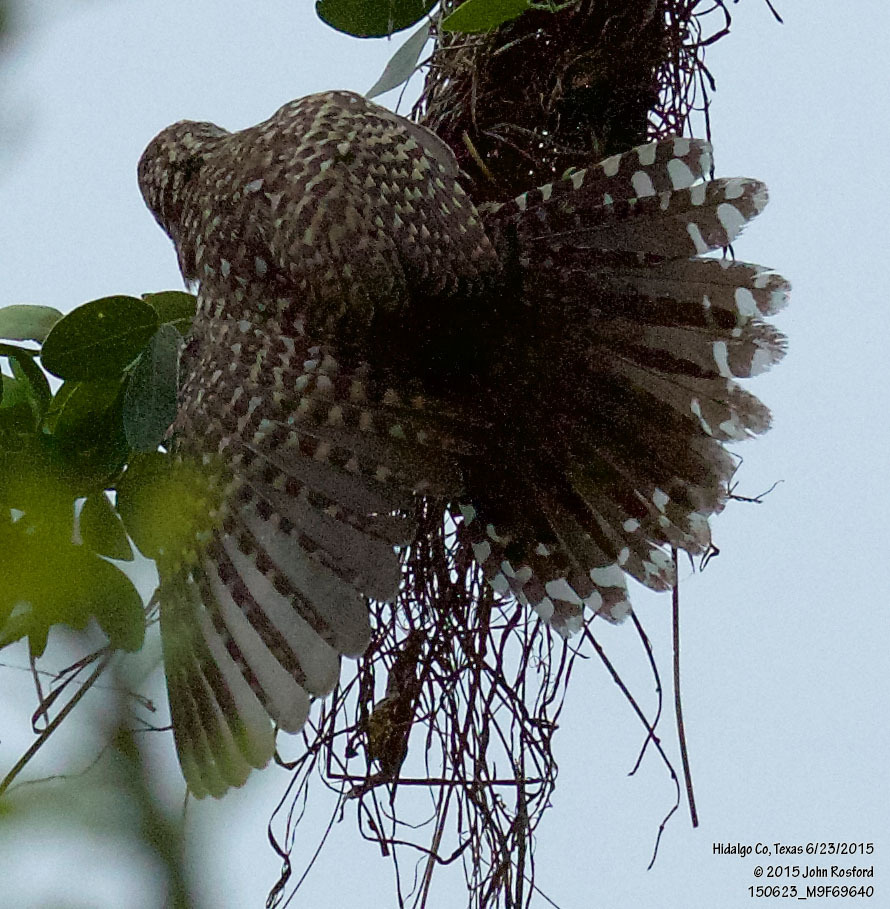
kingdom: Animalia
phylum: Chordata
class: Aves
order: Passeriformes
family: Troglodytidae
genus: Campylorhynchus
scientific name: Campylorhynchus brunneicapillus
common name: Cactus wren
